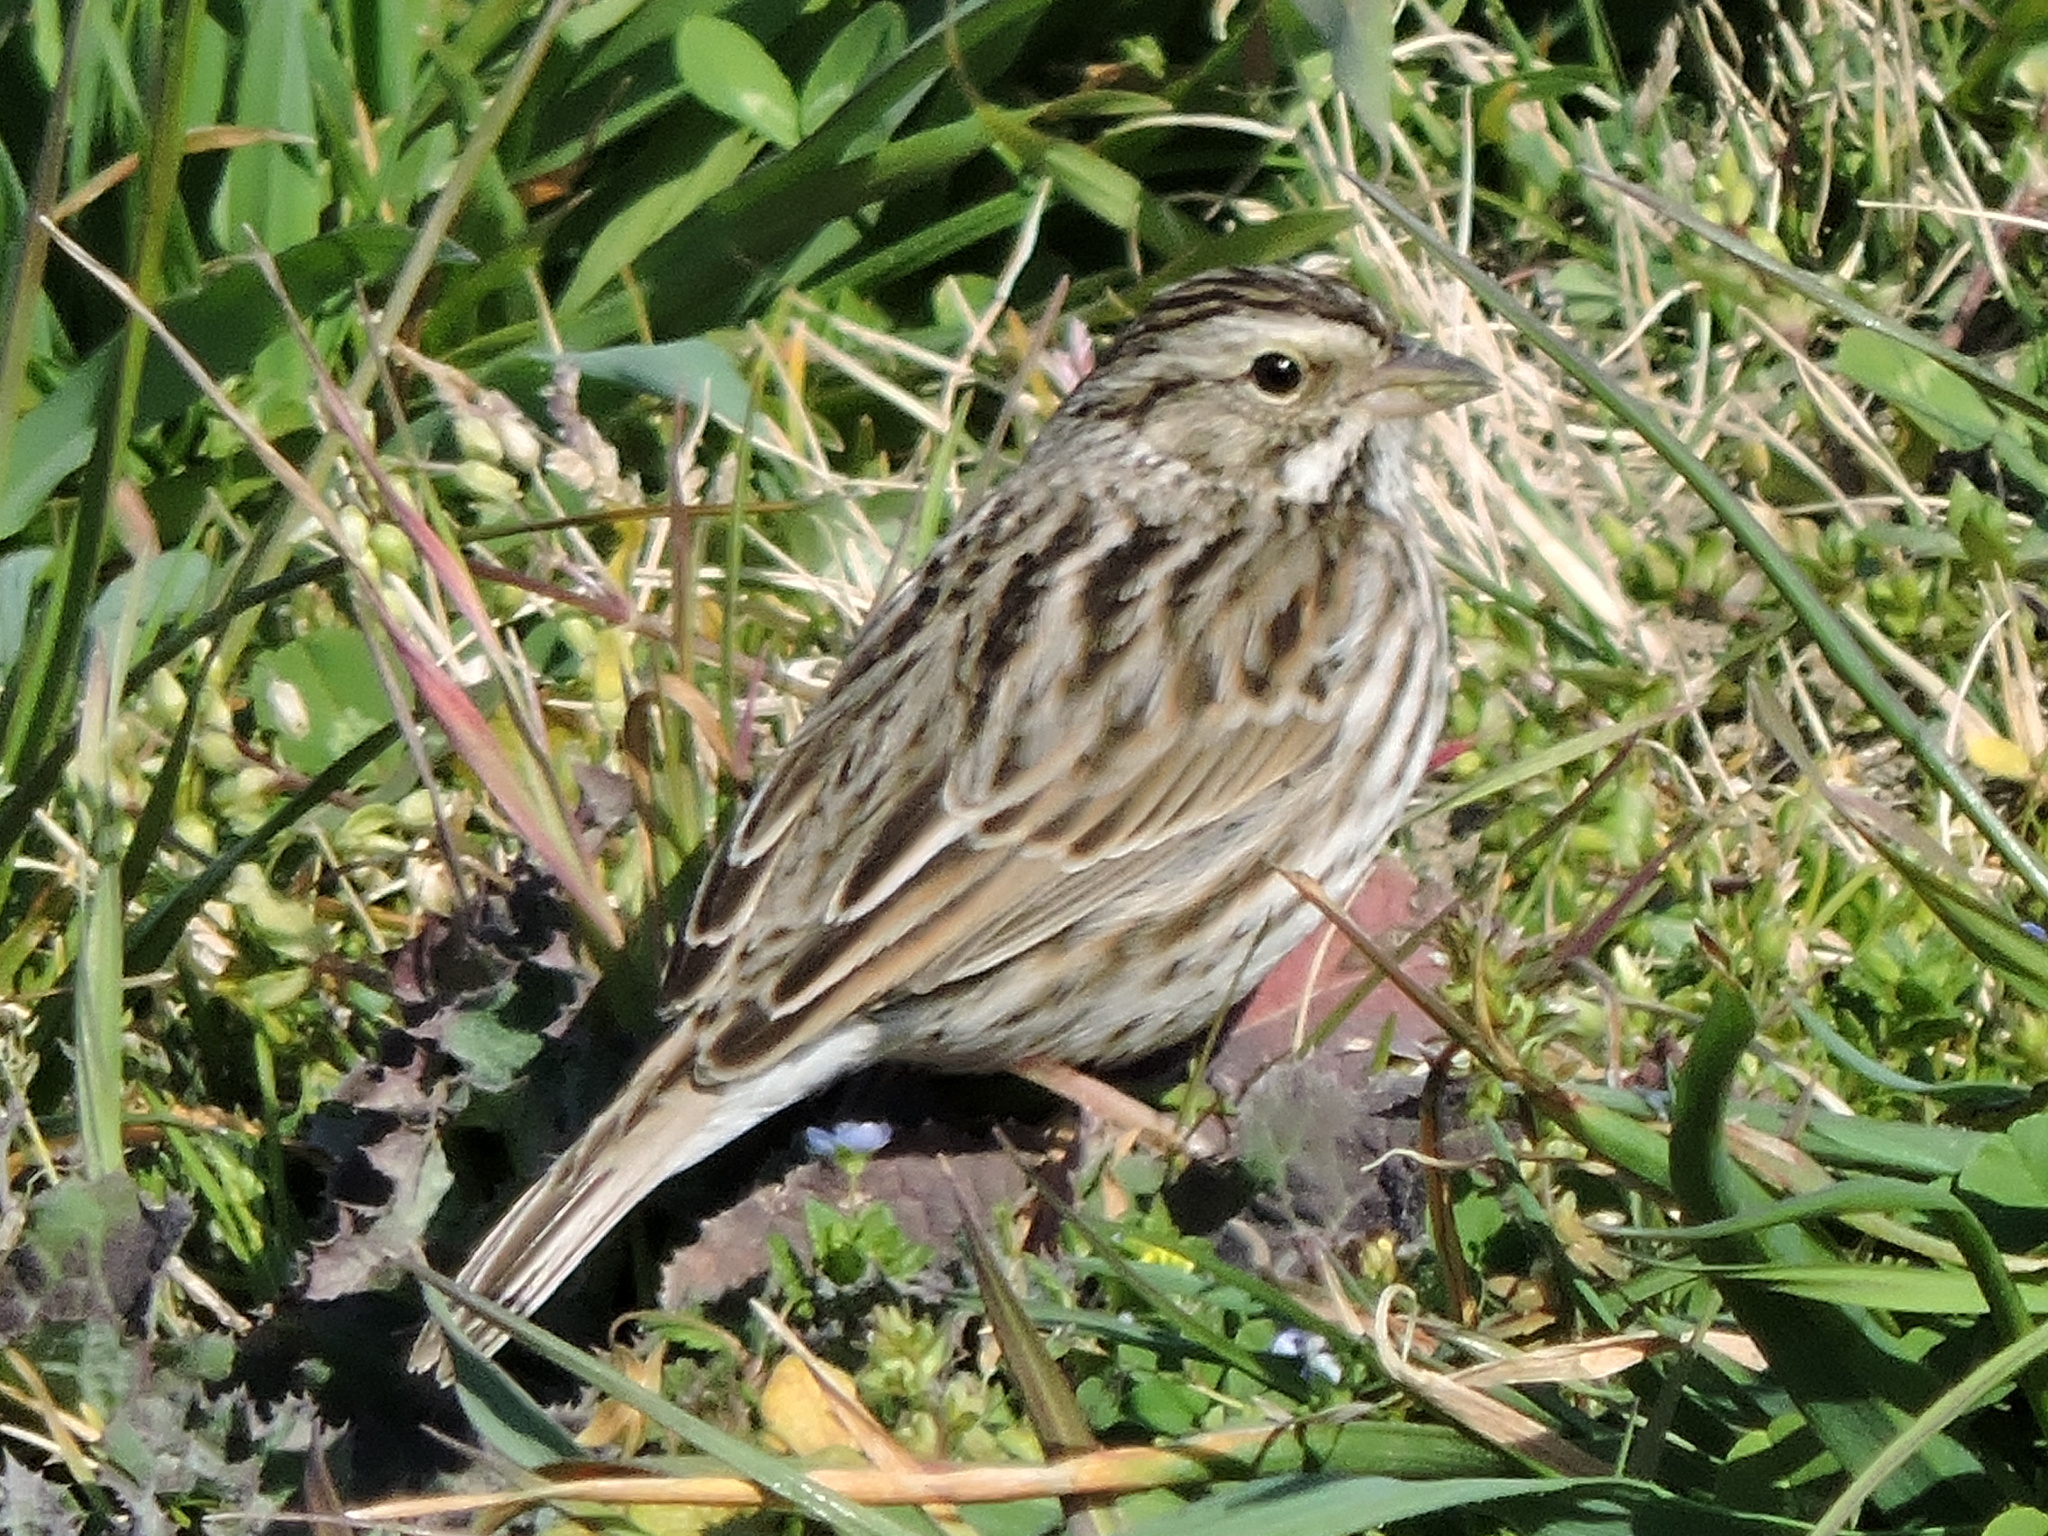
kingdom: Animalia
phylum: Chordata
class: Aves
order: Passeriformes
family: Passerellidae
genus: Passerculus
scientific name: Passerculus sandwichensis
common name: Savannah sparrow
